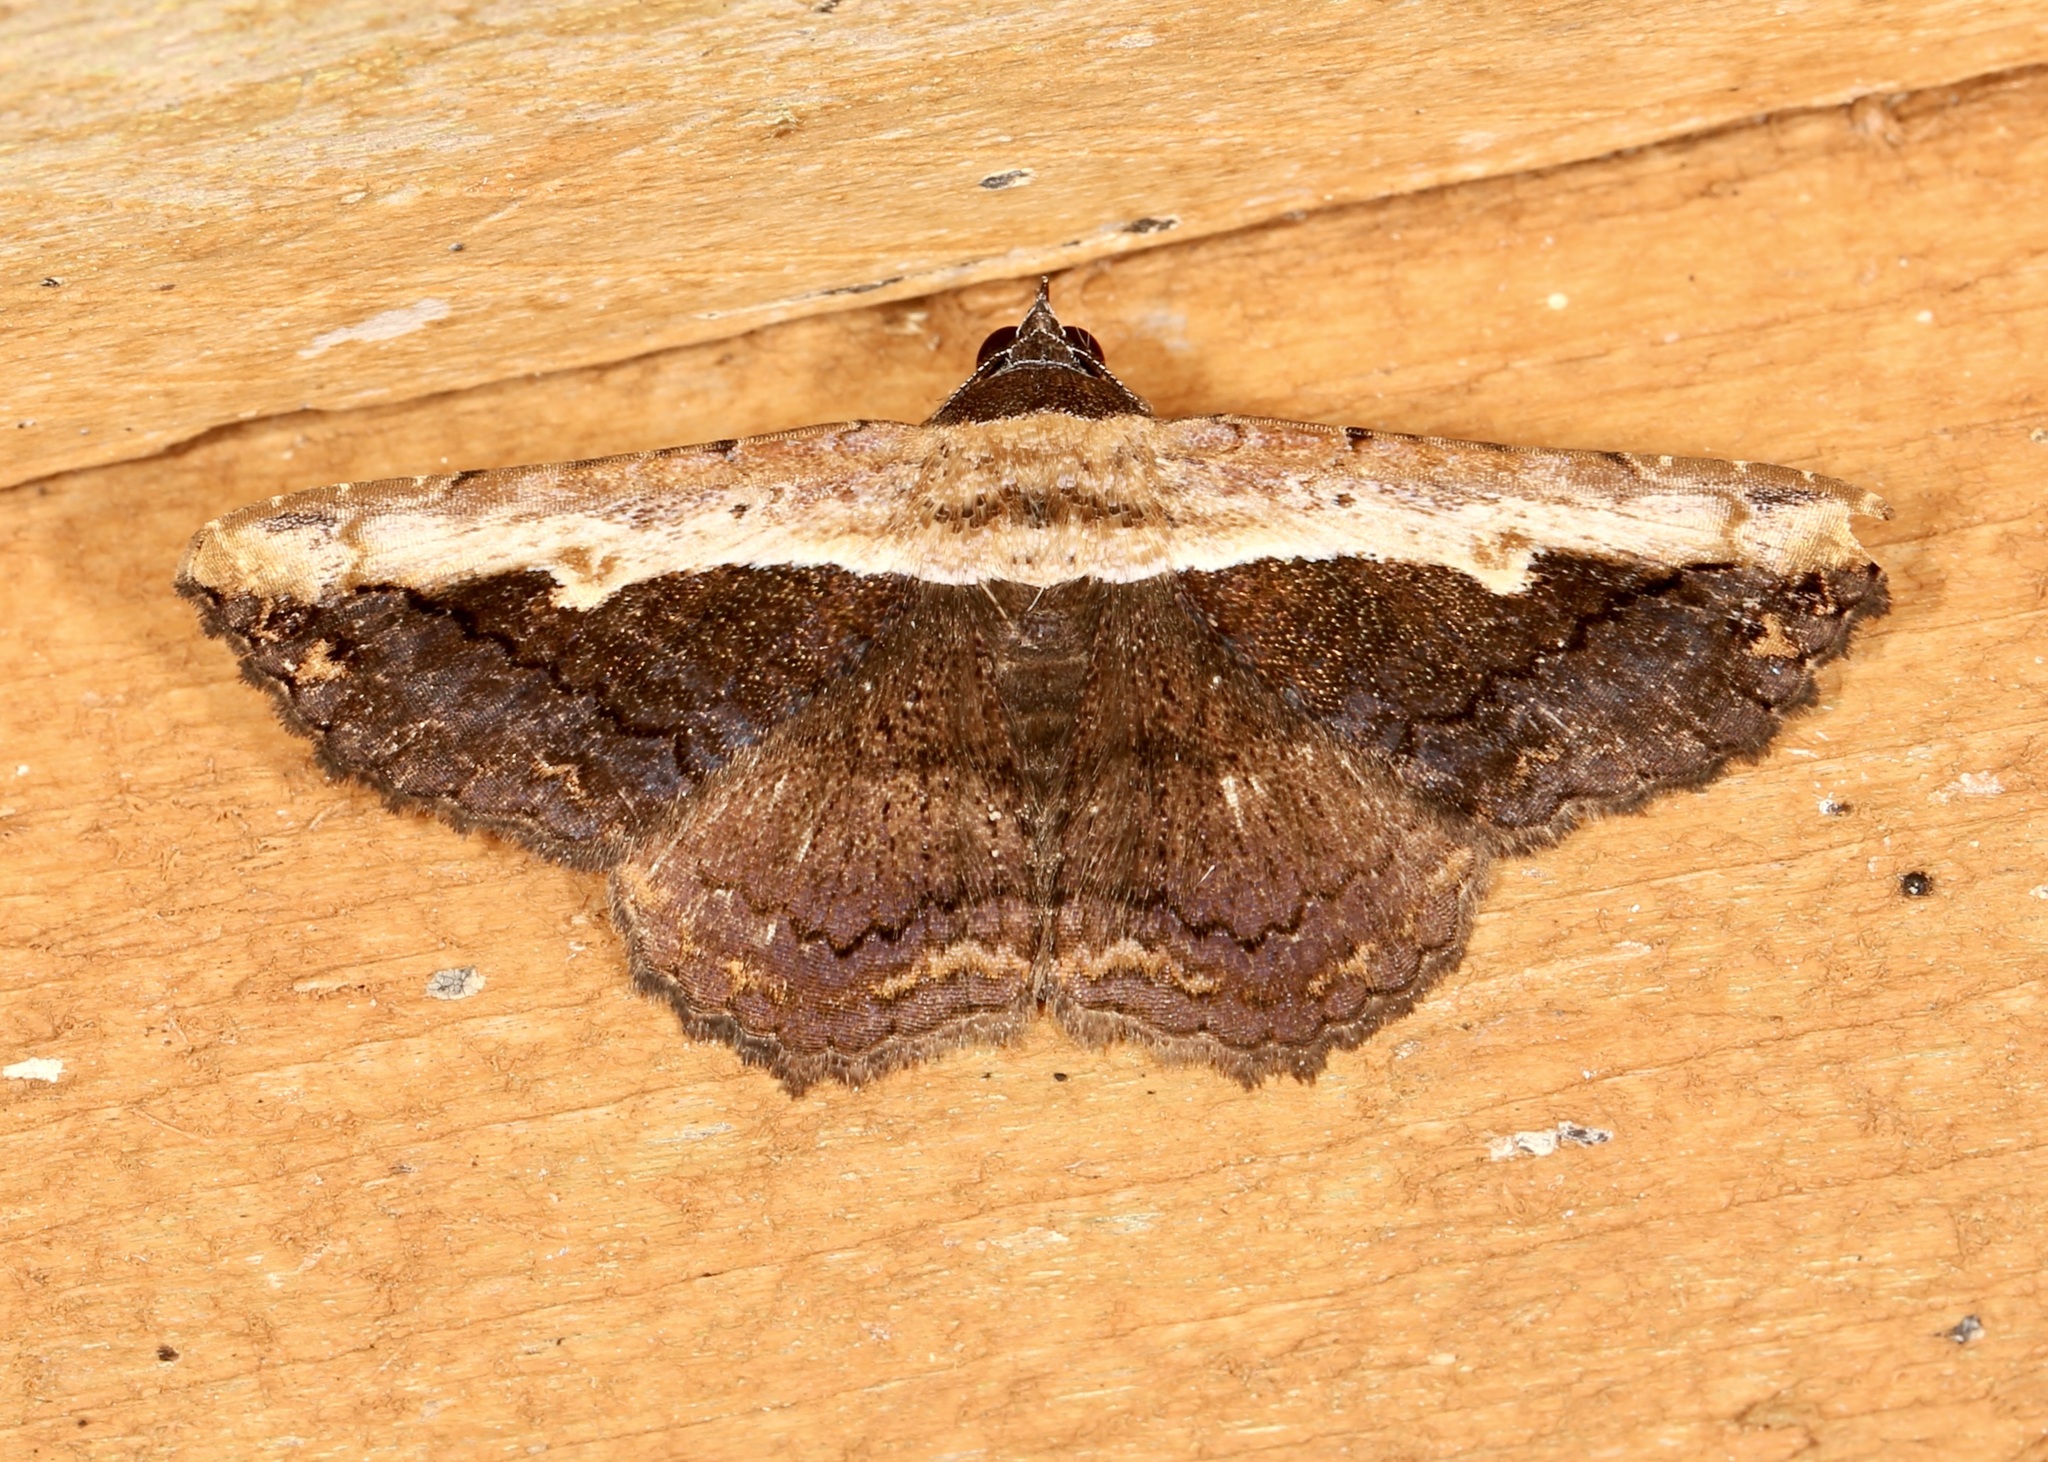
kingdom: Animalia
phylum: Arthropoda
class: Insecta
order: Lepidoptera
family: Erebidae
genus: Selenisa
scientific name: Selenisa sueroides
